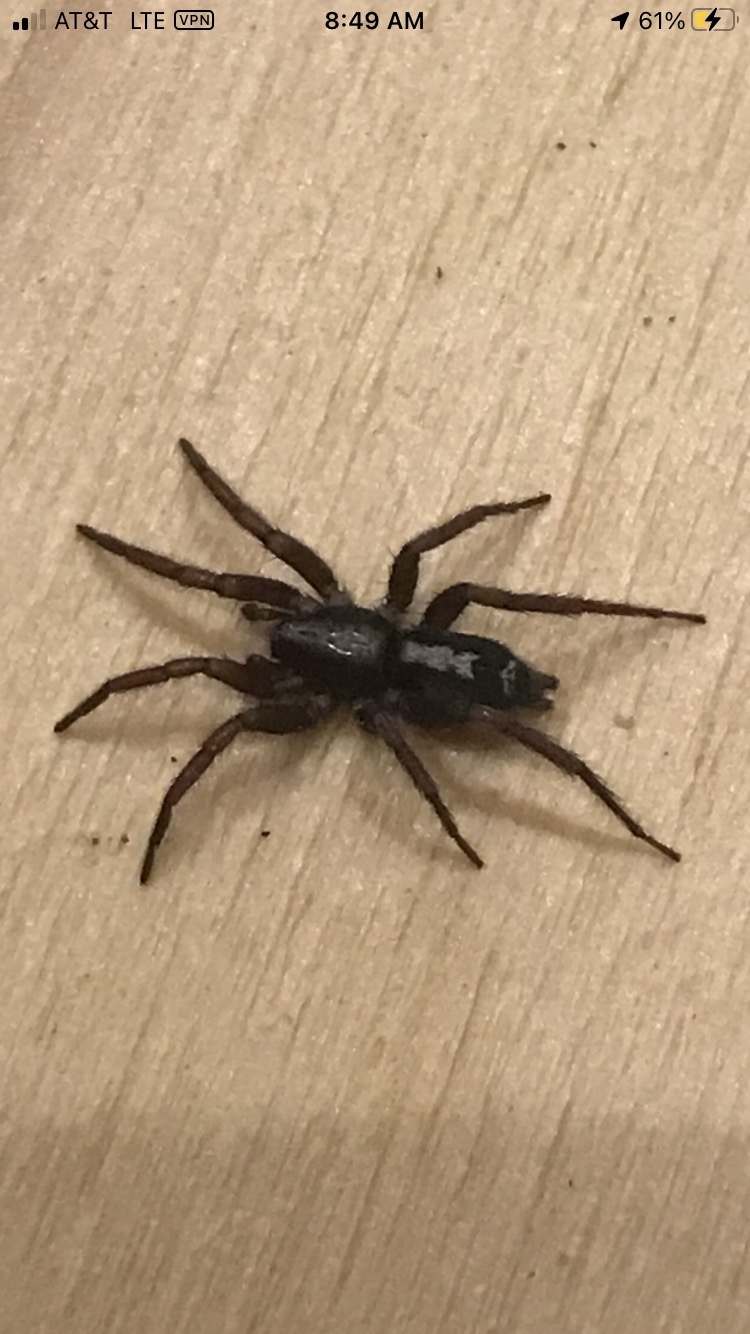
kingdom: Animalia
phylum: Arthropoda
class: Arachnida
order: Araneae
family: Gnaphosidae
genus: Herpyllus
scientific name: Herpyllus ecclesiasticus
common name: Eastern parson spider
